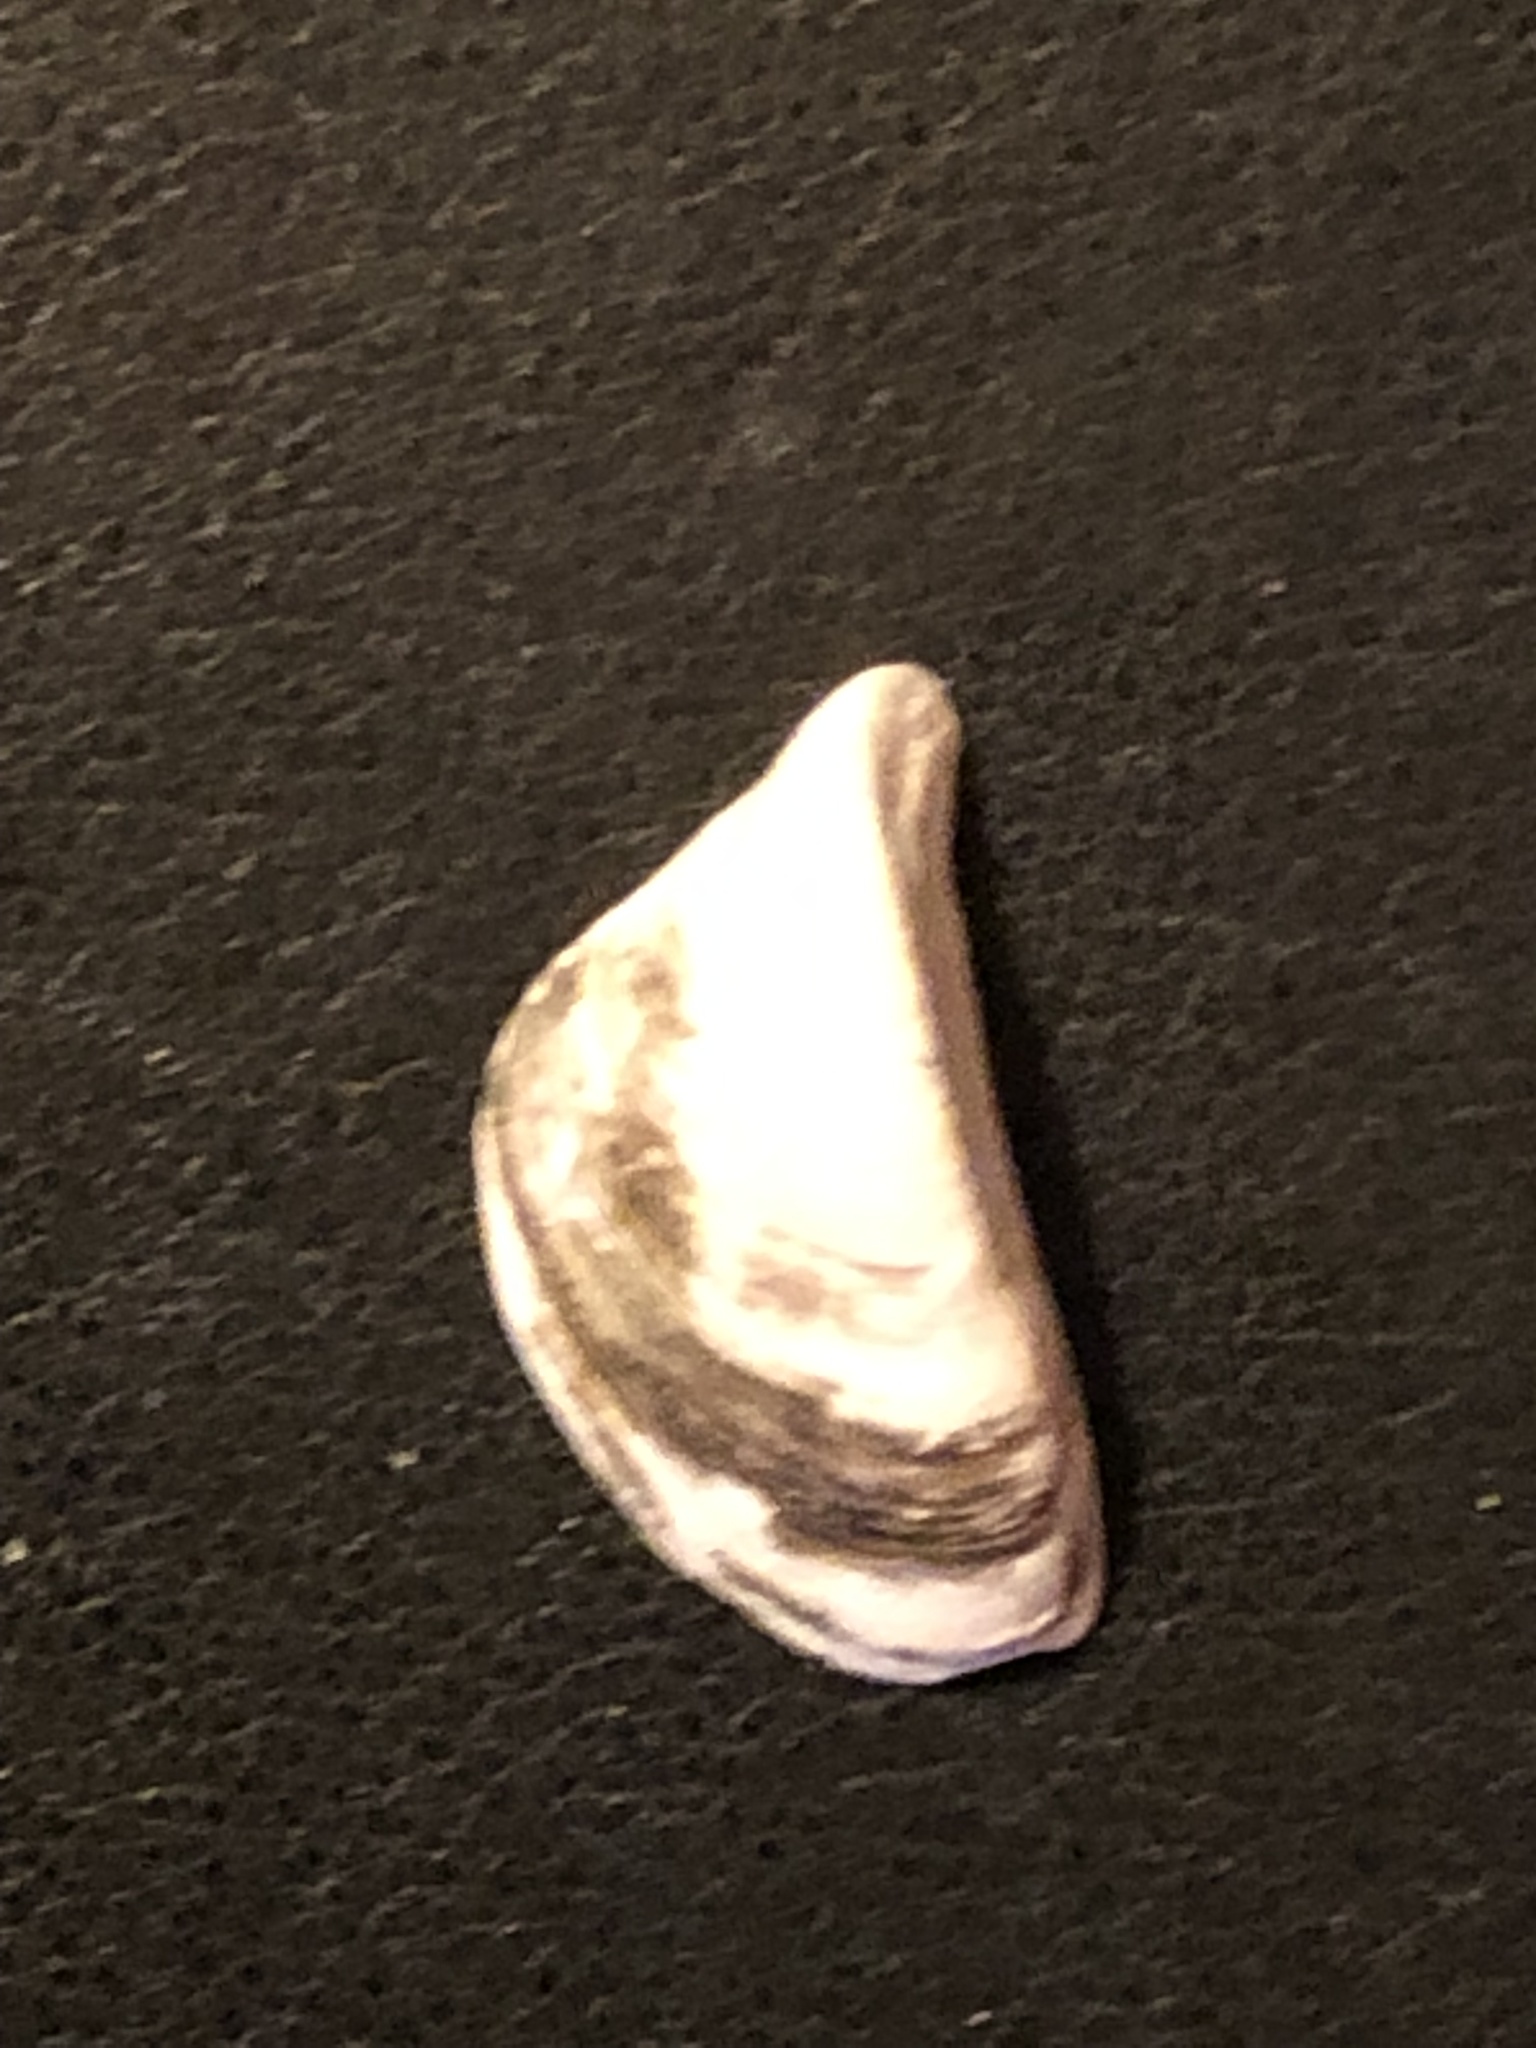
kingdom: Animalia
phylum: Mollusca
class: Bivalvia
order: Myida
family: Dreissenidae
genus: Dreissena
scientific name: Dreissena polymorpha
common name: Zebra mussel
